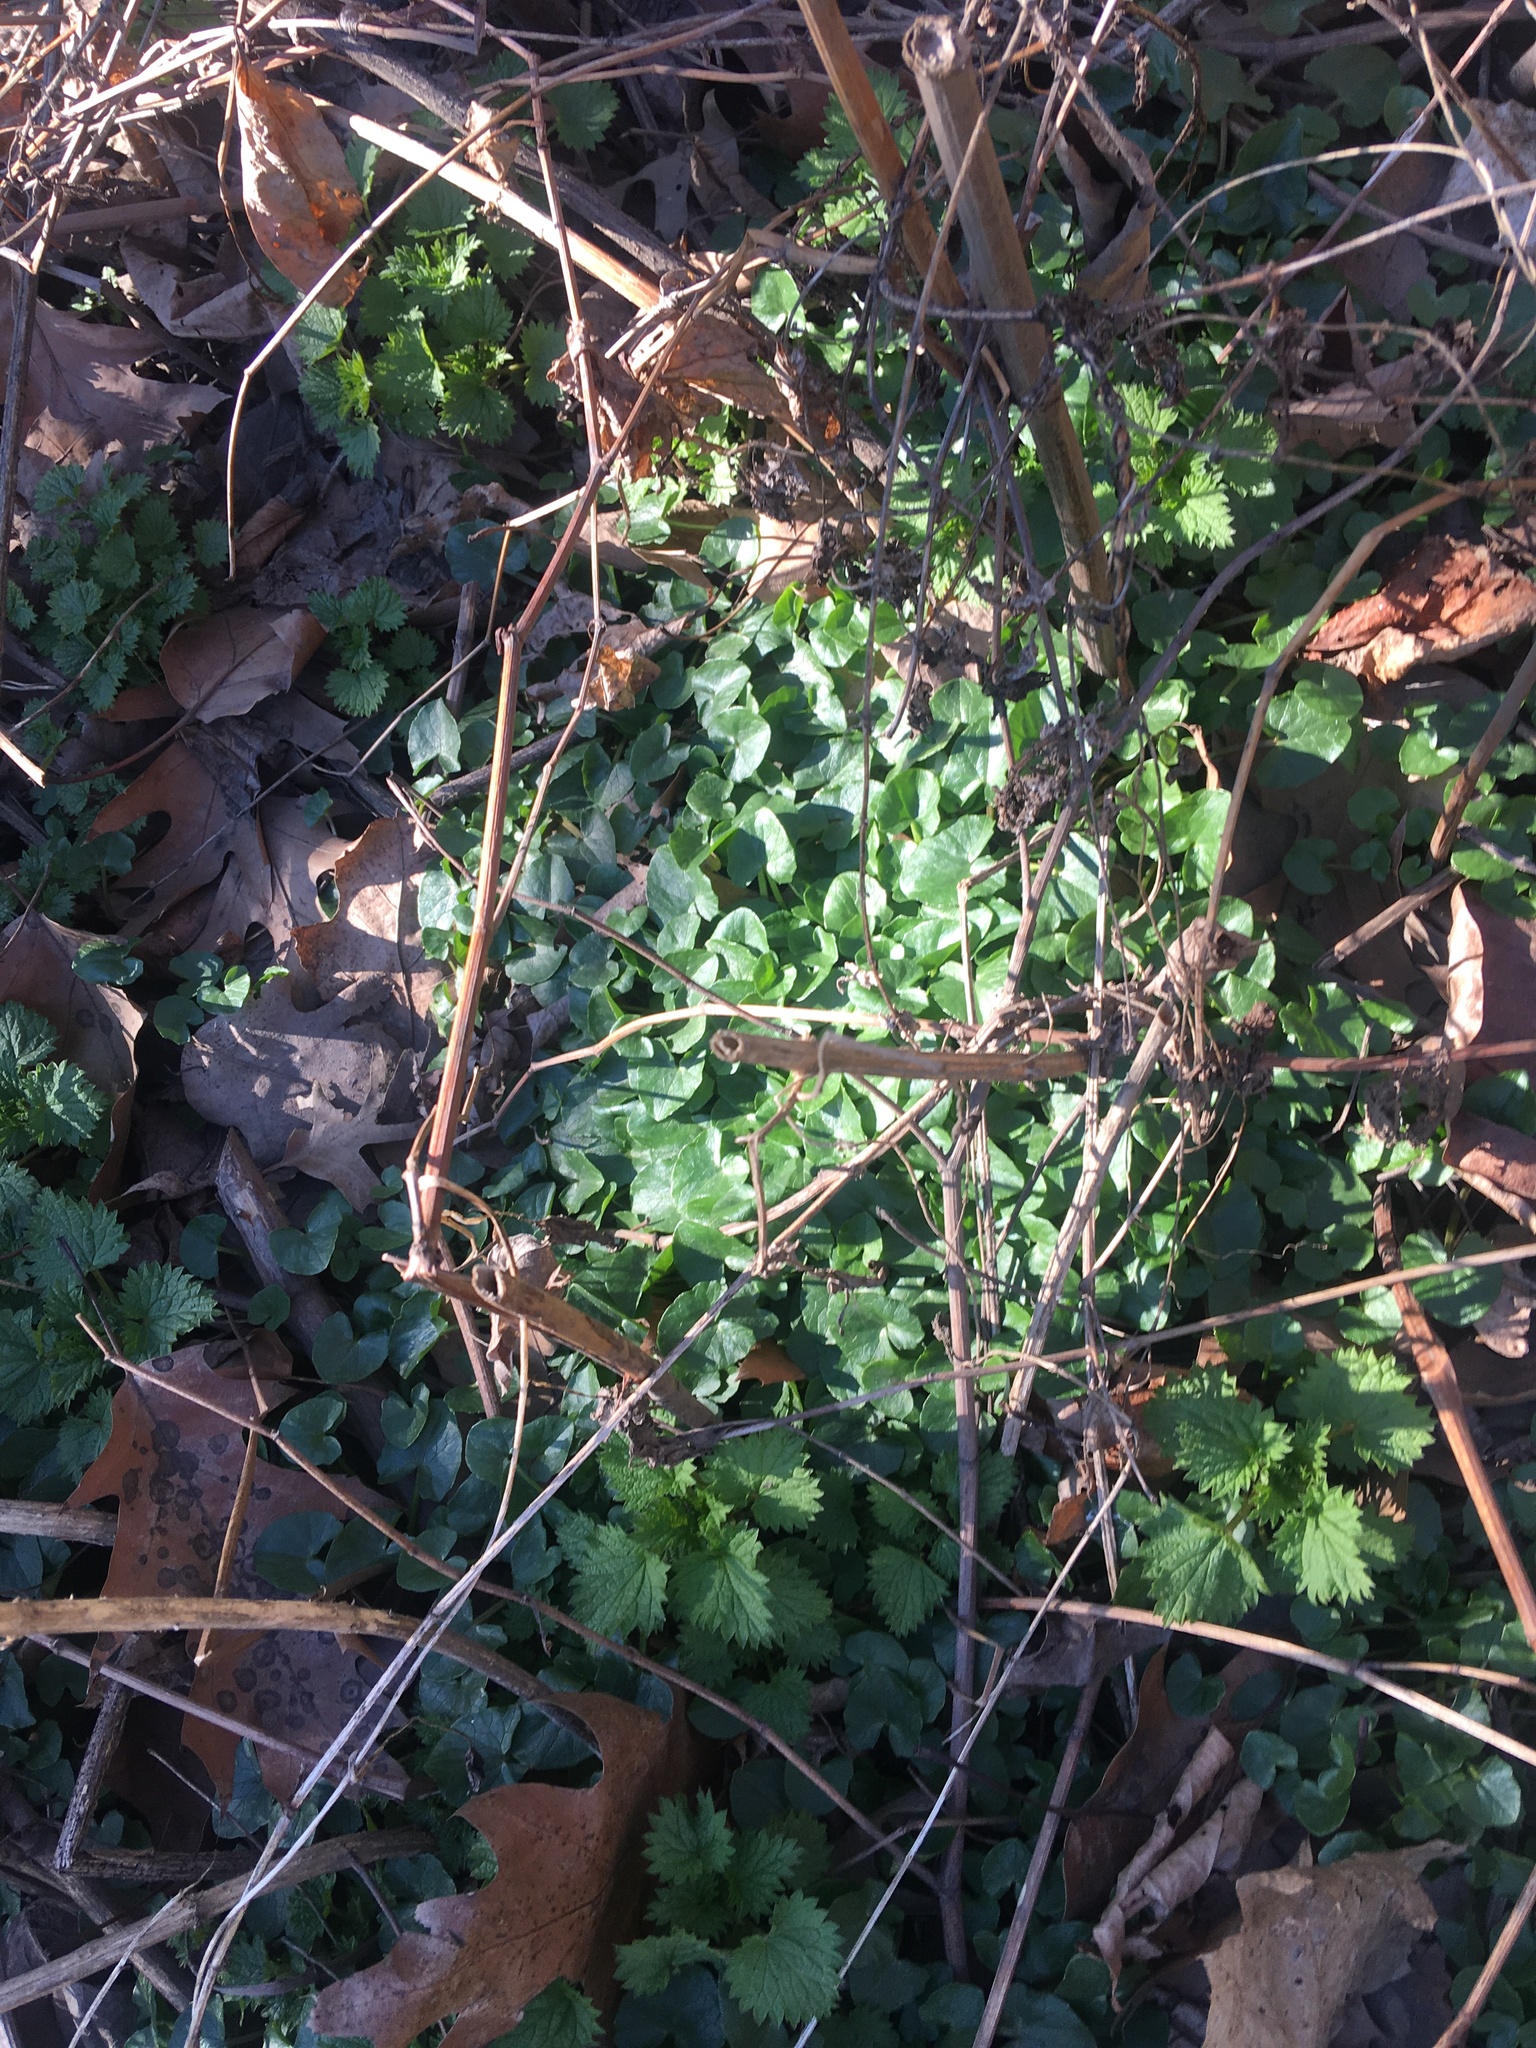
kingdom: Plantae
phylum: Tracheophyta
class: Magnoliopsida
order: Ranunculales
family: Ranunculaceae
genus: Ficaria
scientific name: Ficaria verna
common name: Lesser celandine
